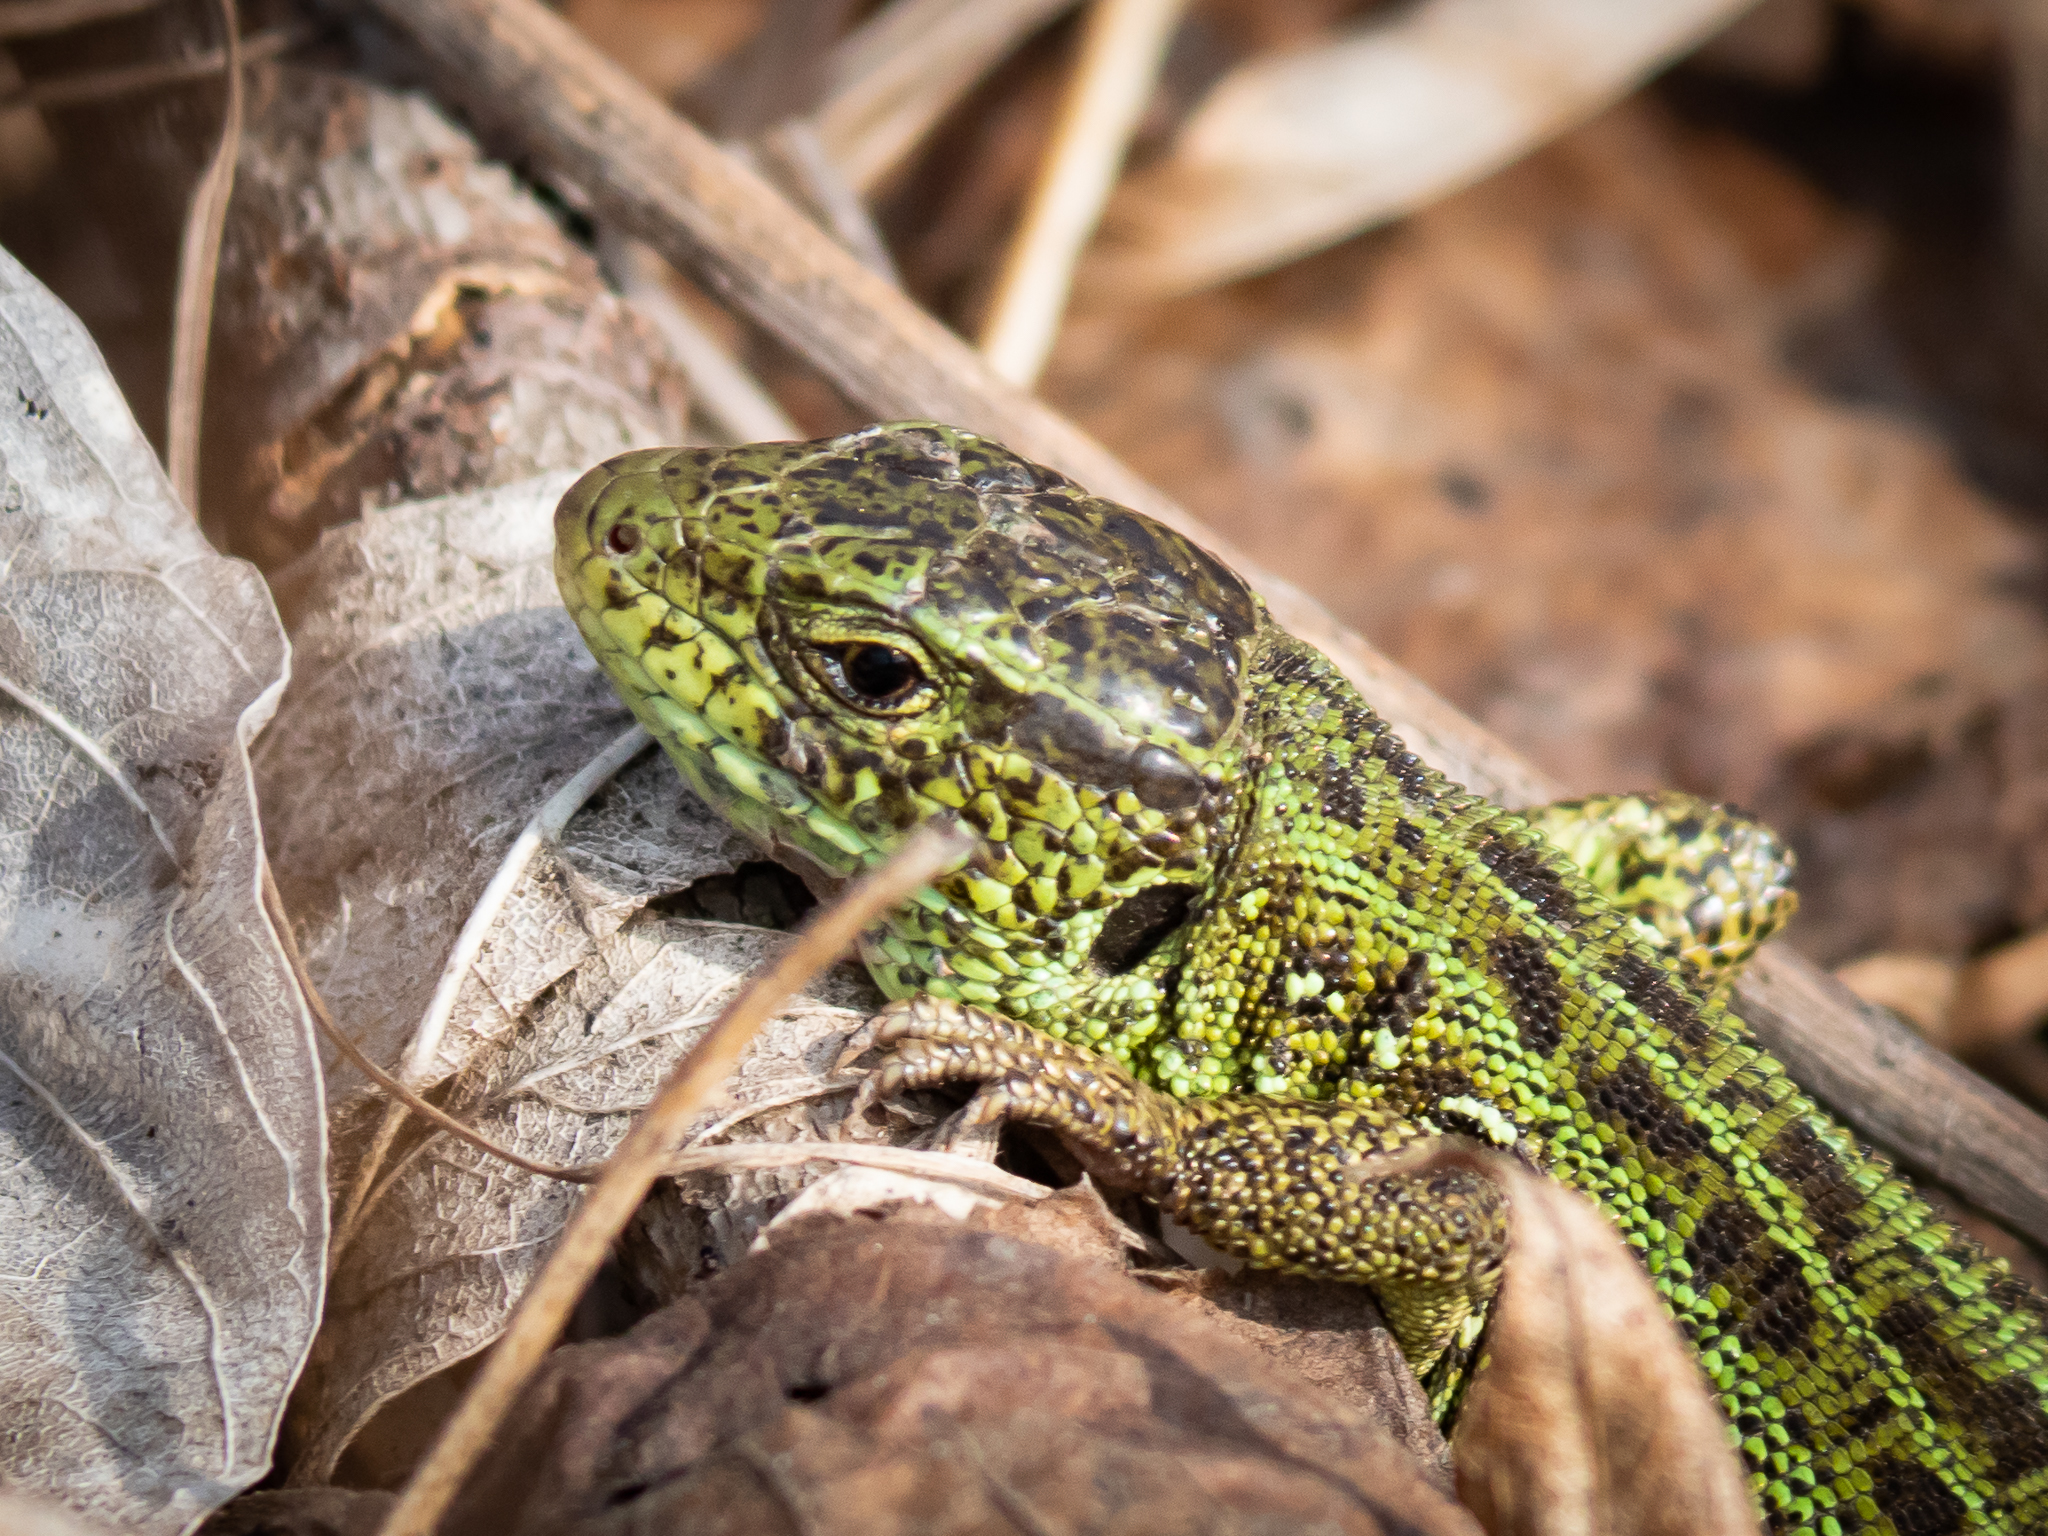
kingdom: Animalia
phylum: Chordata
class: Squamata
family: Lacertidae
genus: Lacerta
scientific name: Lacerta agilis
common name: Sand lizard
